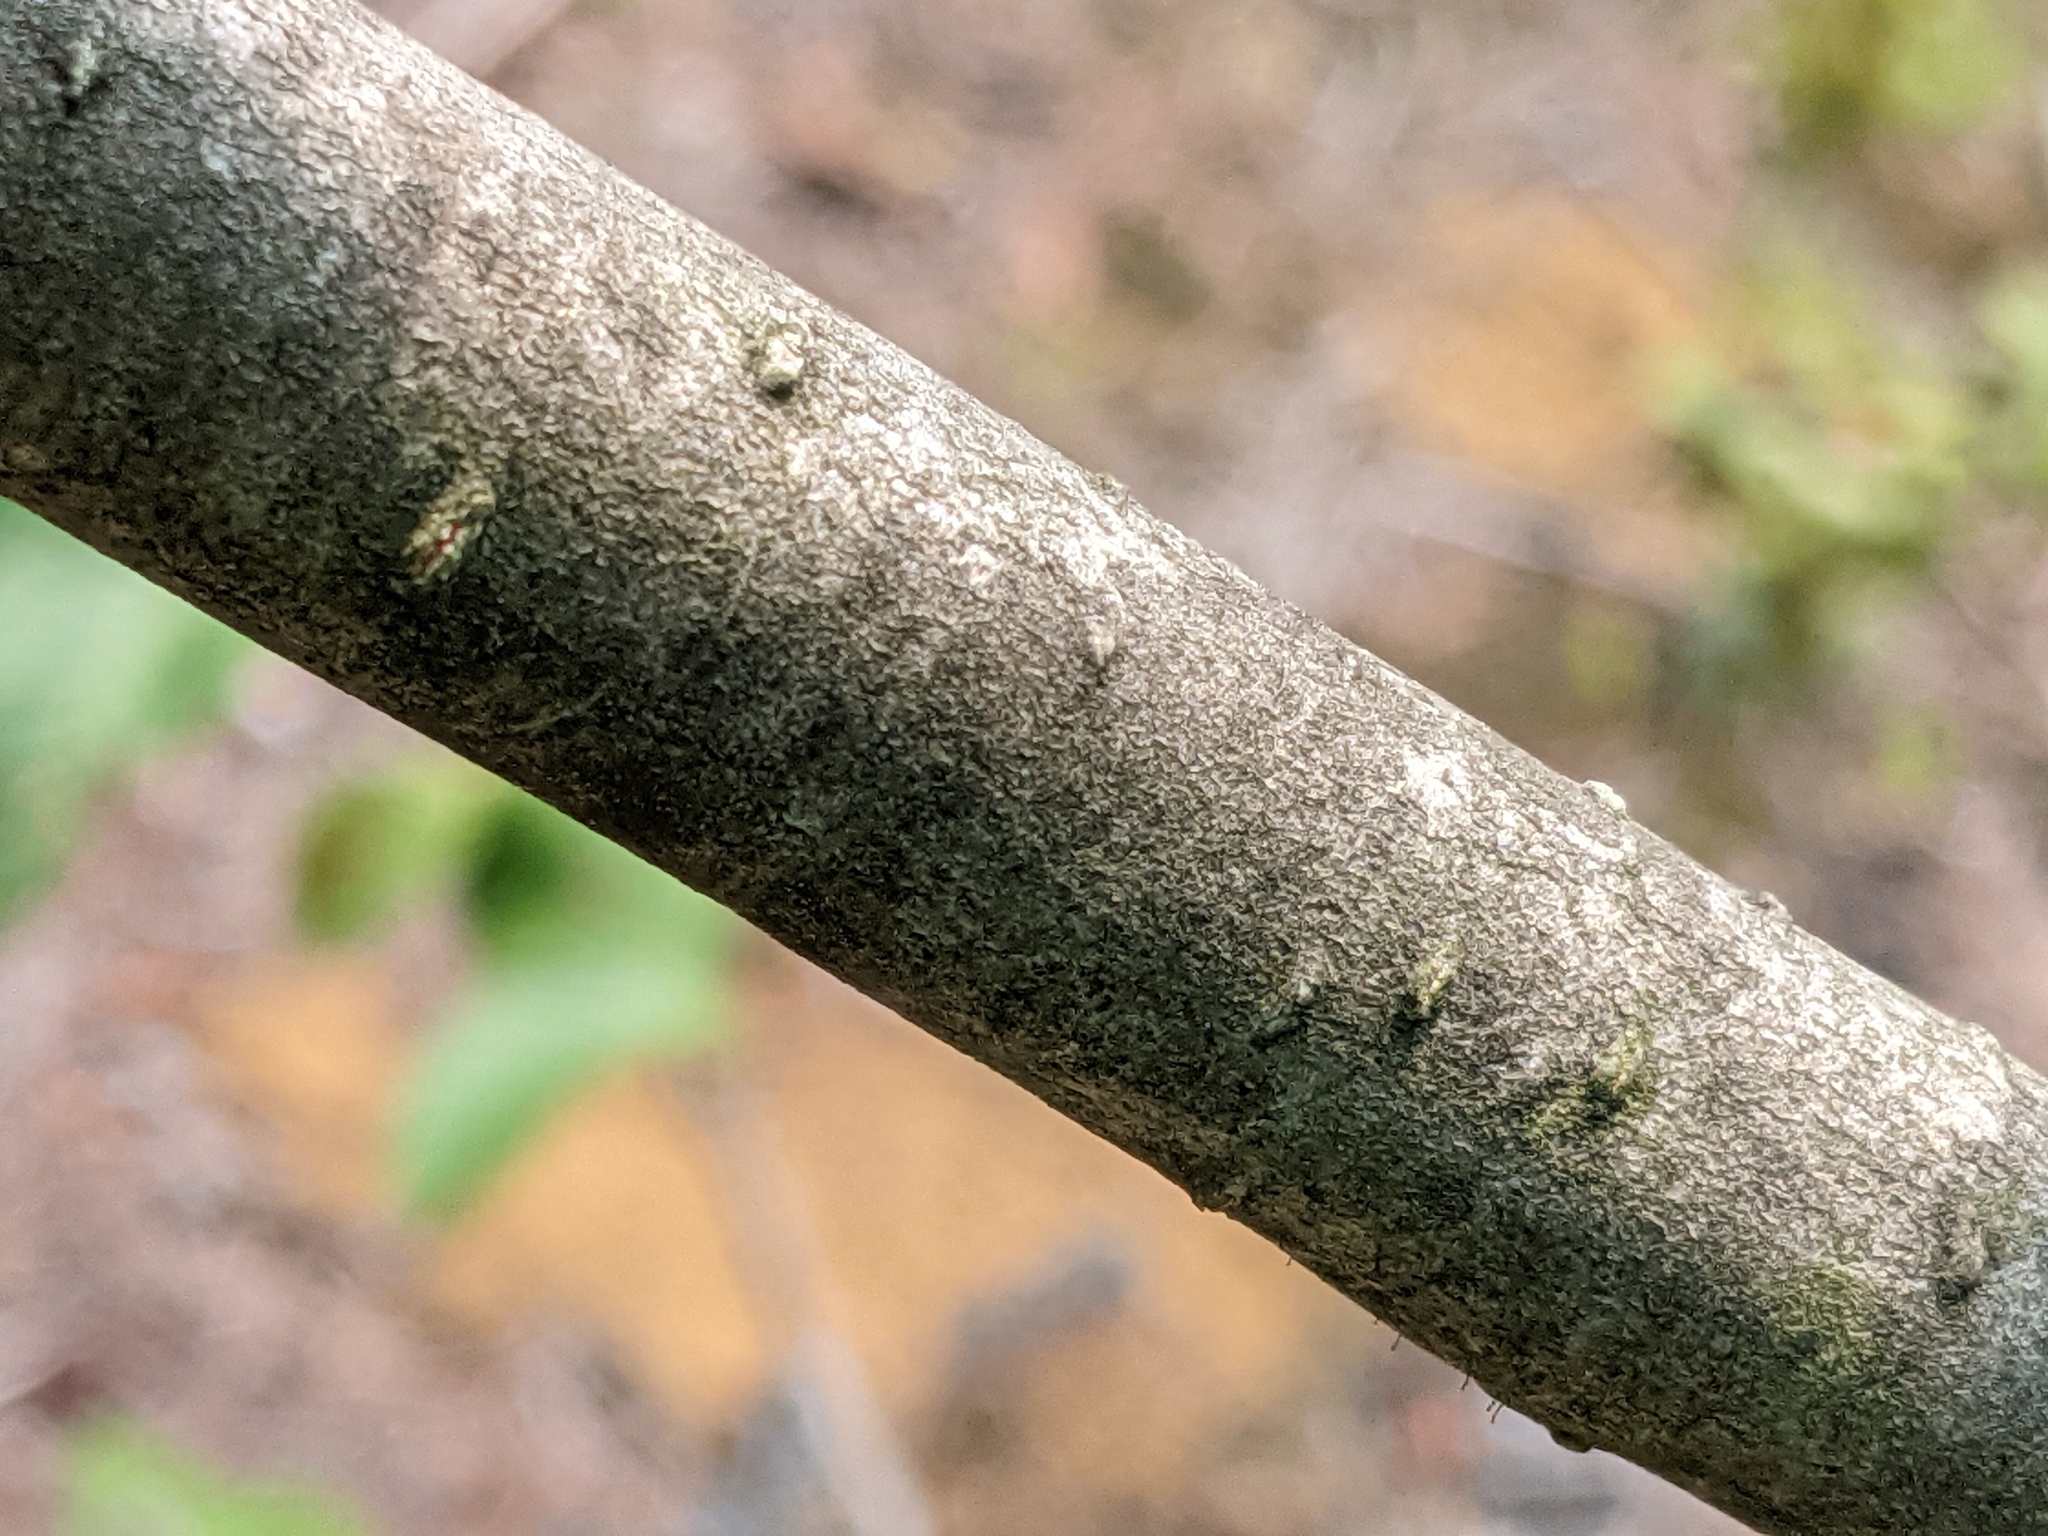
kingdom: Plantae
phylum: Tracheophyta
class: Magnoliopsida
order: Fagales
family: Betulaceae
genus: Alnus
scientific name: Alnus incana
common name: Grey alder
